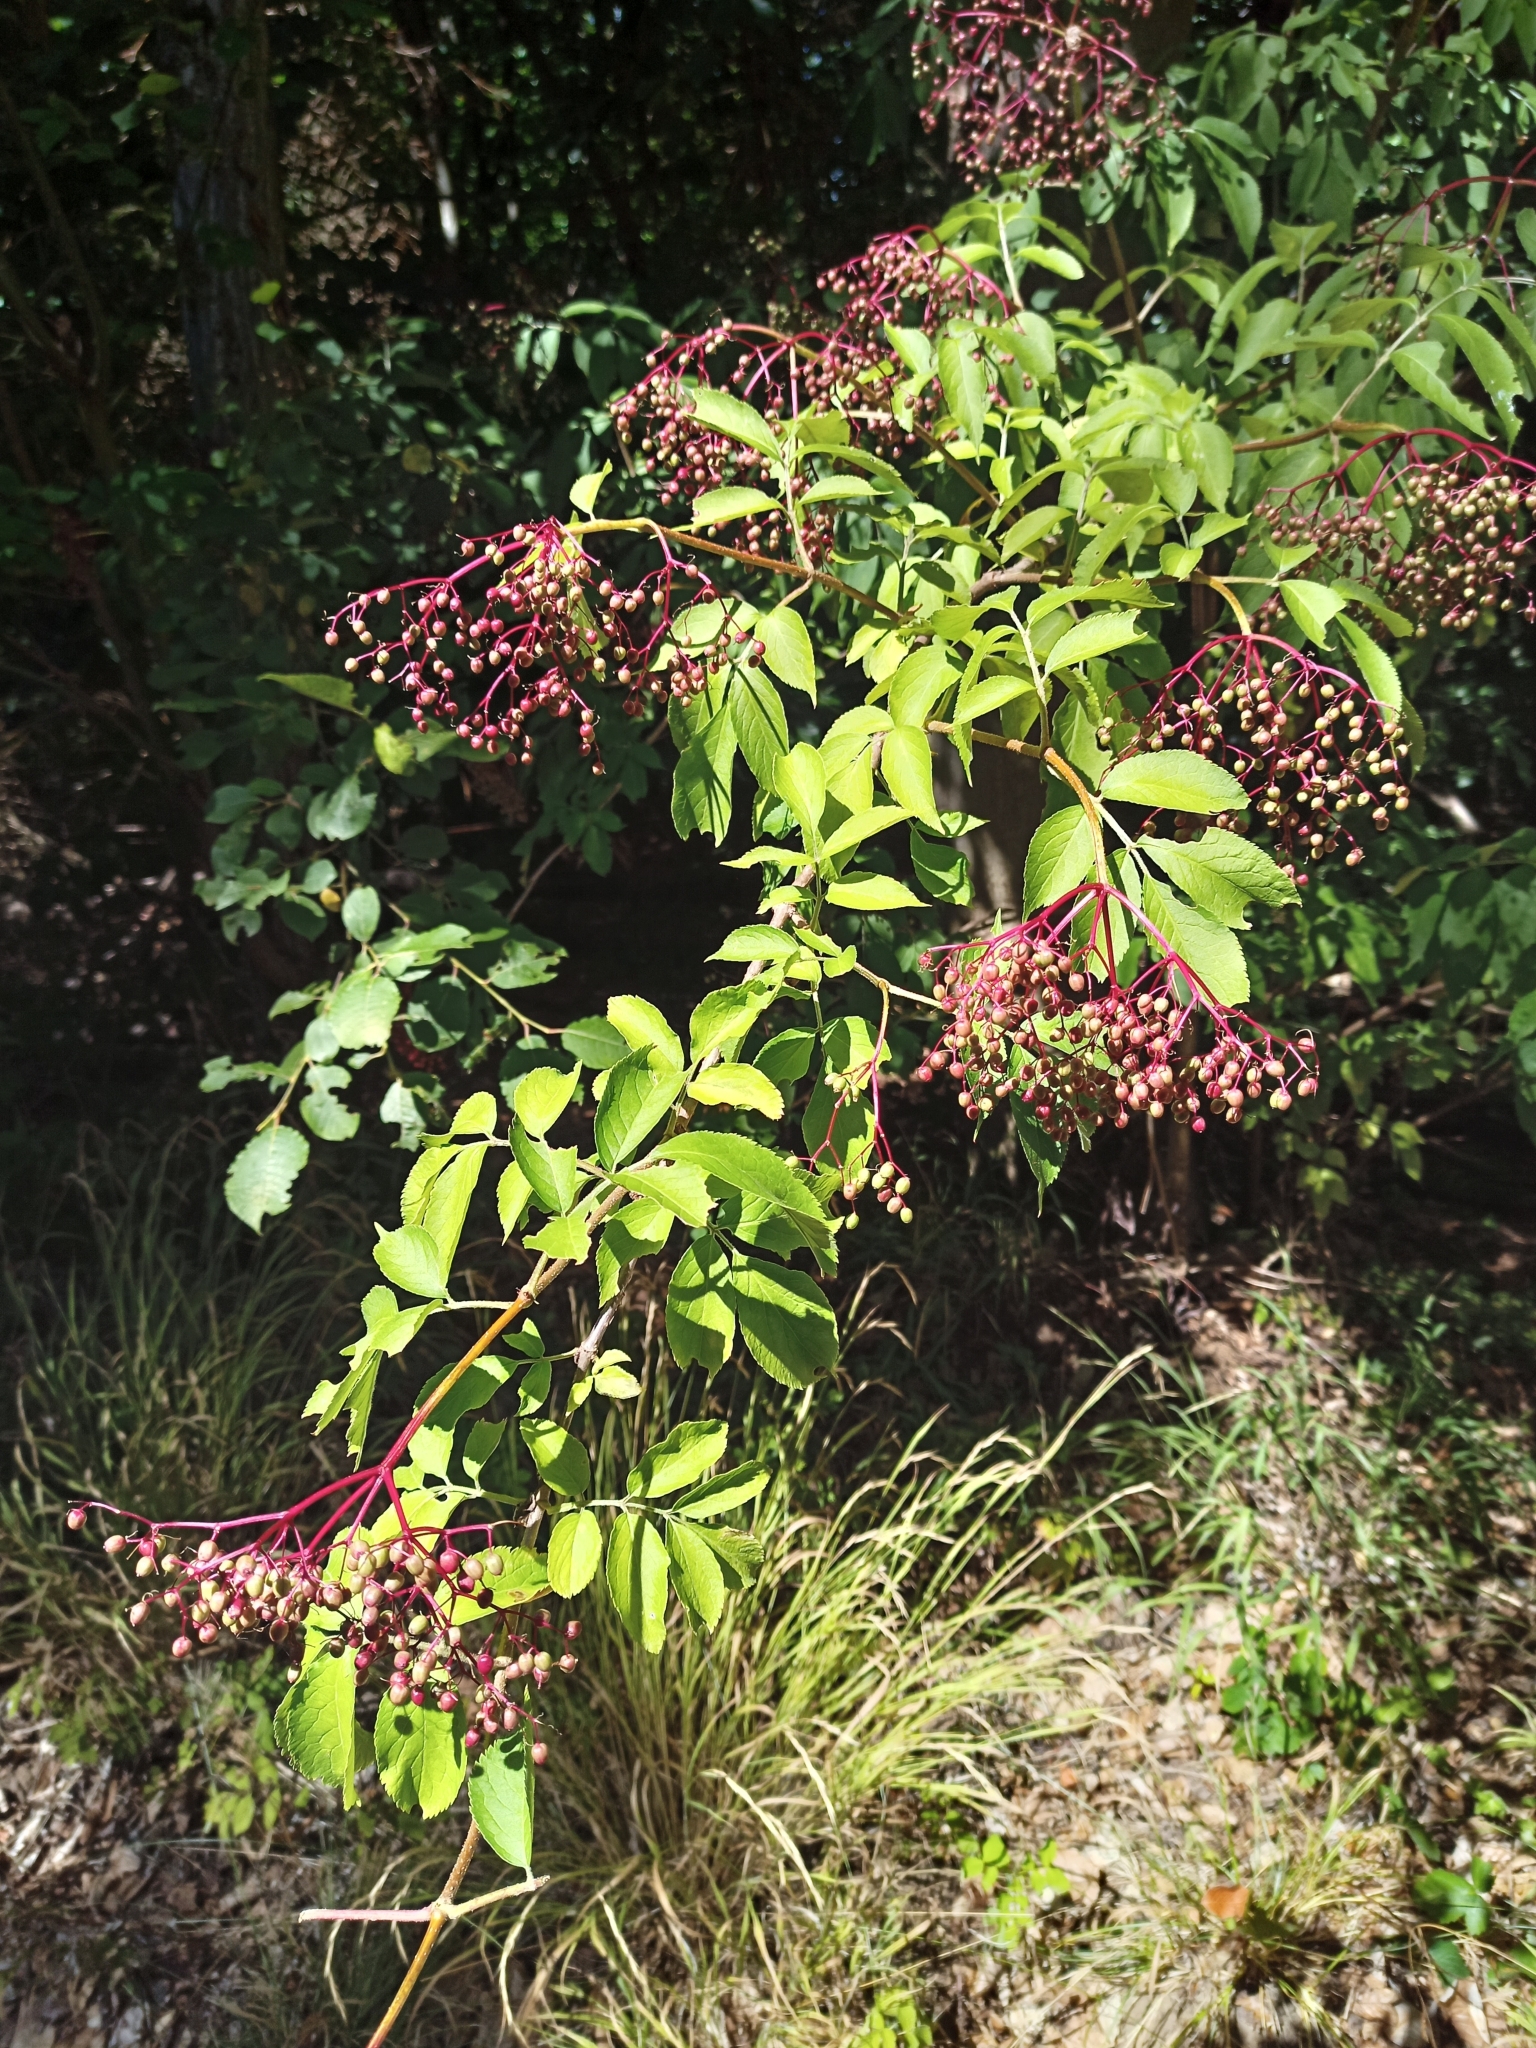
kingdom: Plantae
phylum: Tracheophyta
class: Magnoliopsida
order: Dipsacales
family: Viburnaceae
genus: Sambucus
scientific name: Sambucus nigra
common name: Elder
